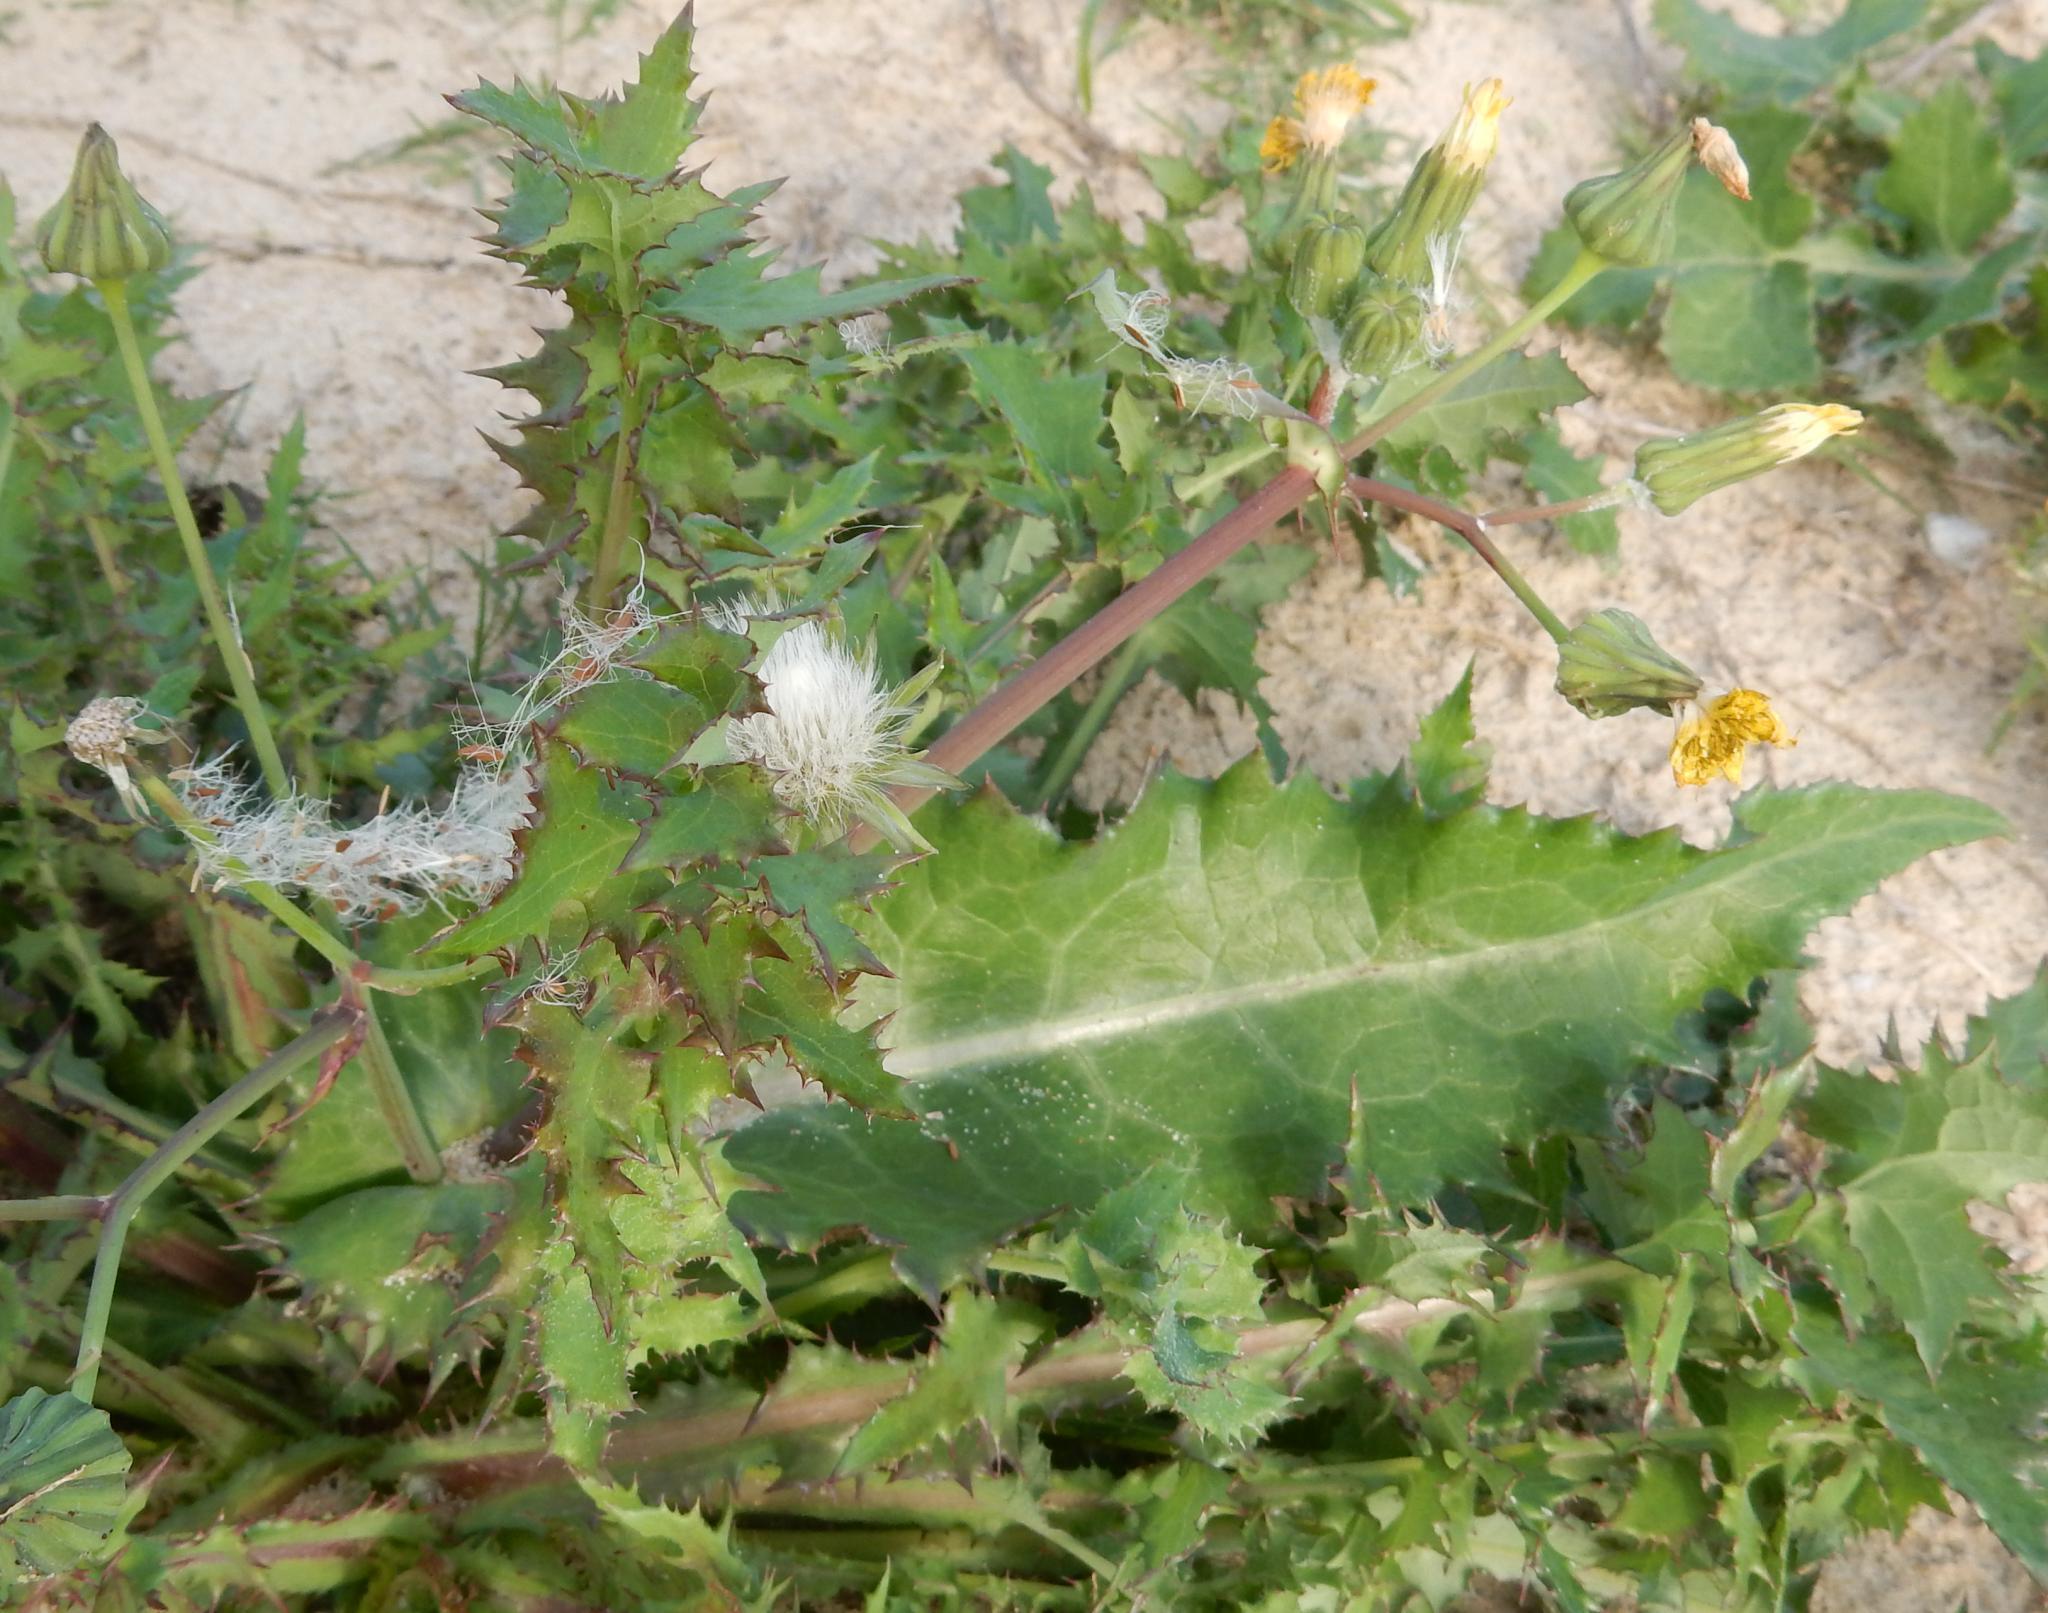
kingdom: Plantae
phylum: Tracheophyta
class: Magnoliopsida
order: Asterales
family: Asteraceae
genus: Sonchus
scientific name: Sonchus asper
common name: Prickly sow-thistle
